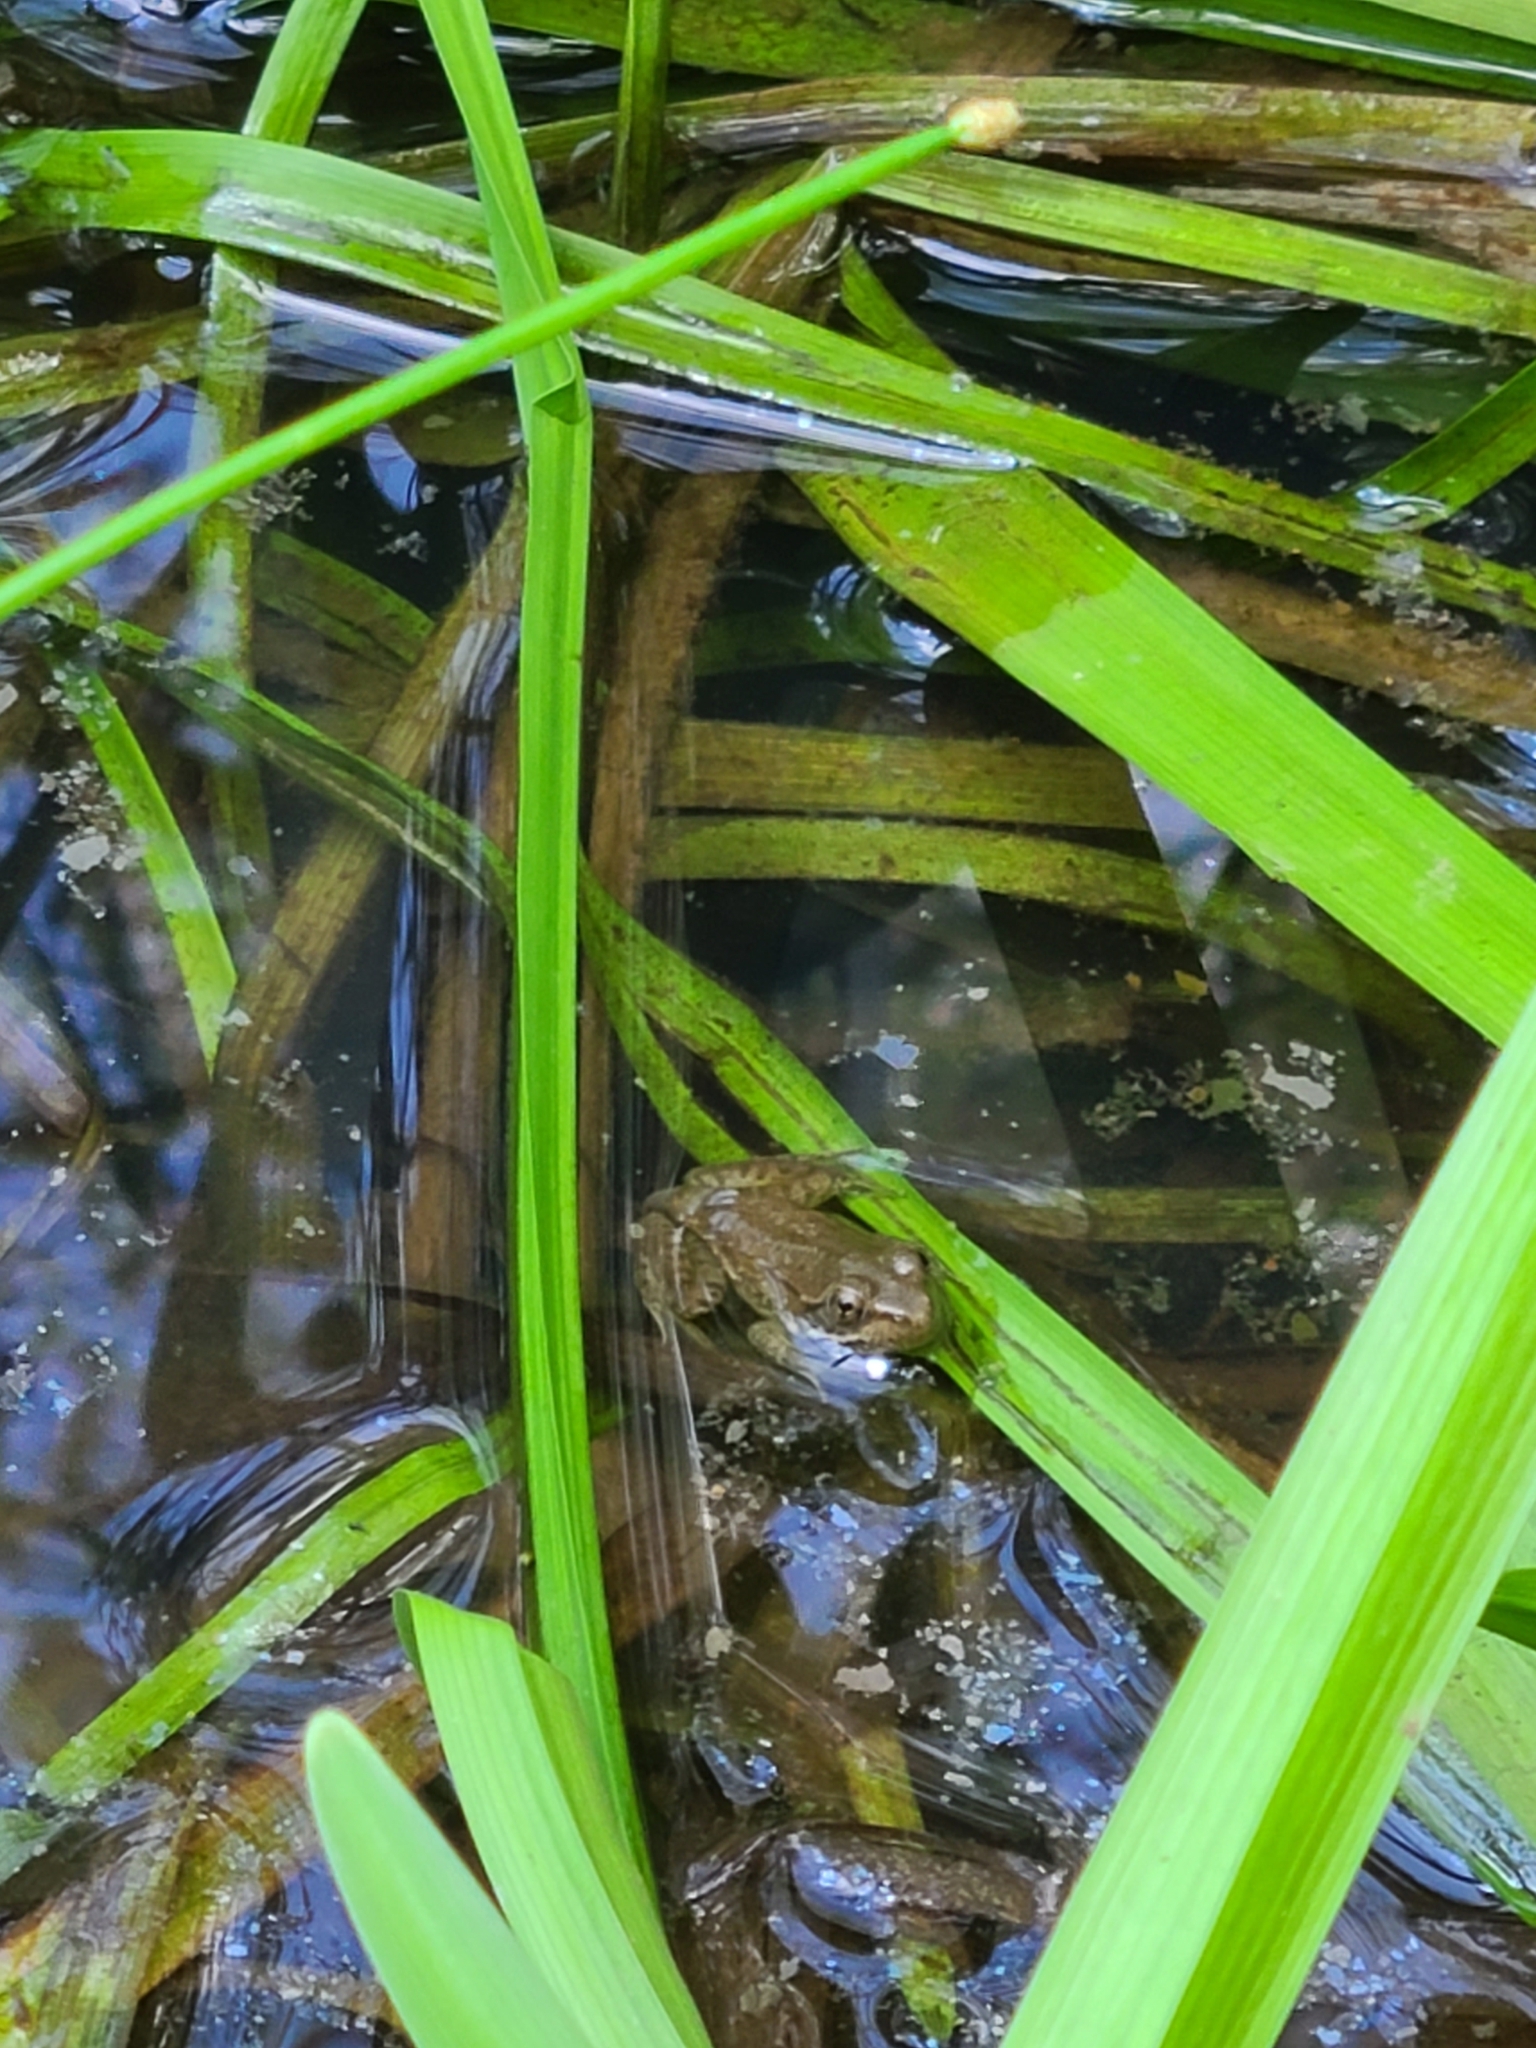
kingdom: Animalia
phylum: Chordata
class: Amphibia
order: Anura
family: Ranidae
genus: Lithobates
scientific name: Lithobates clamitans
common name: Green frog
